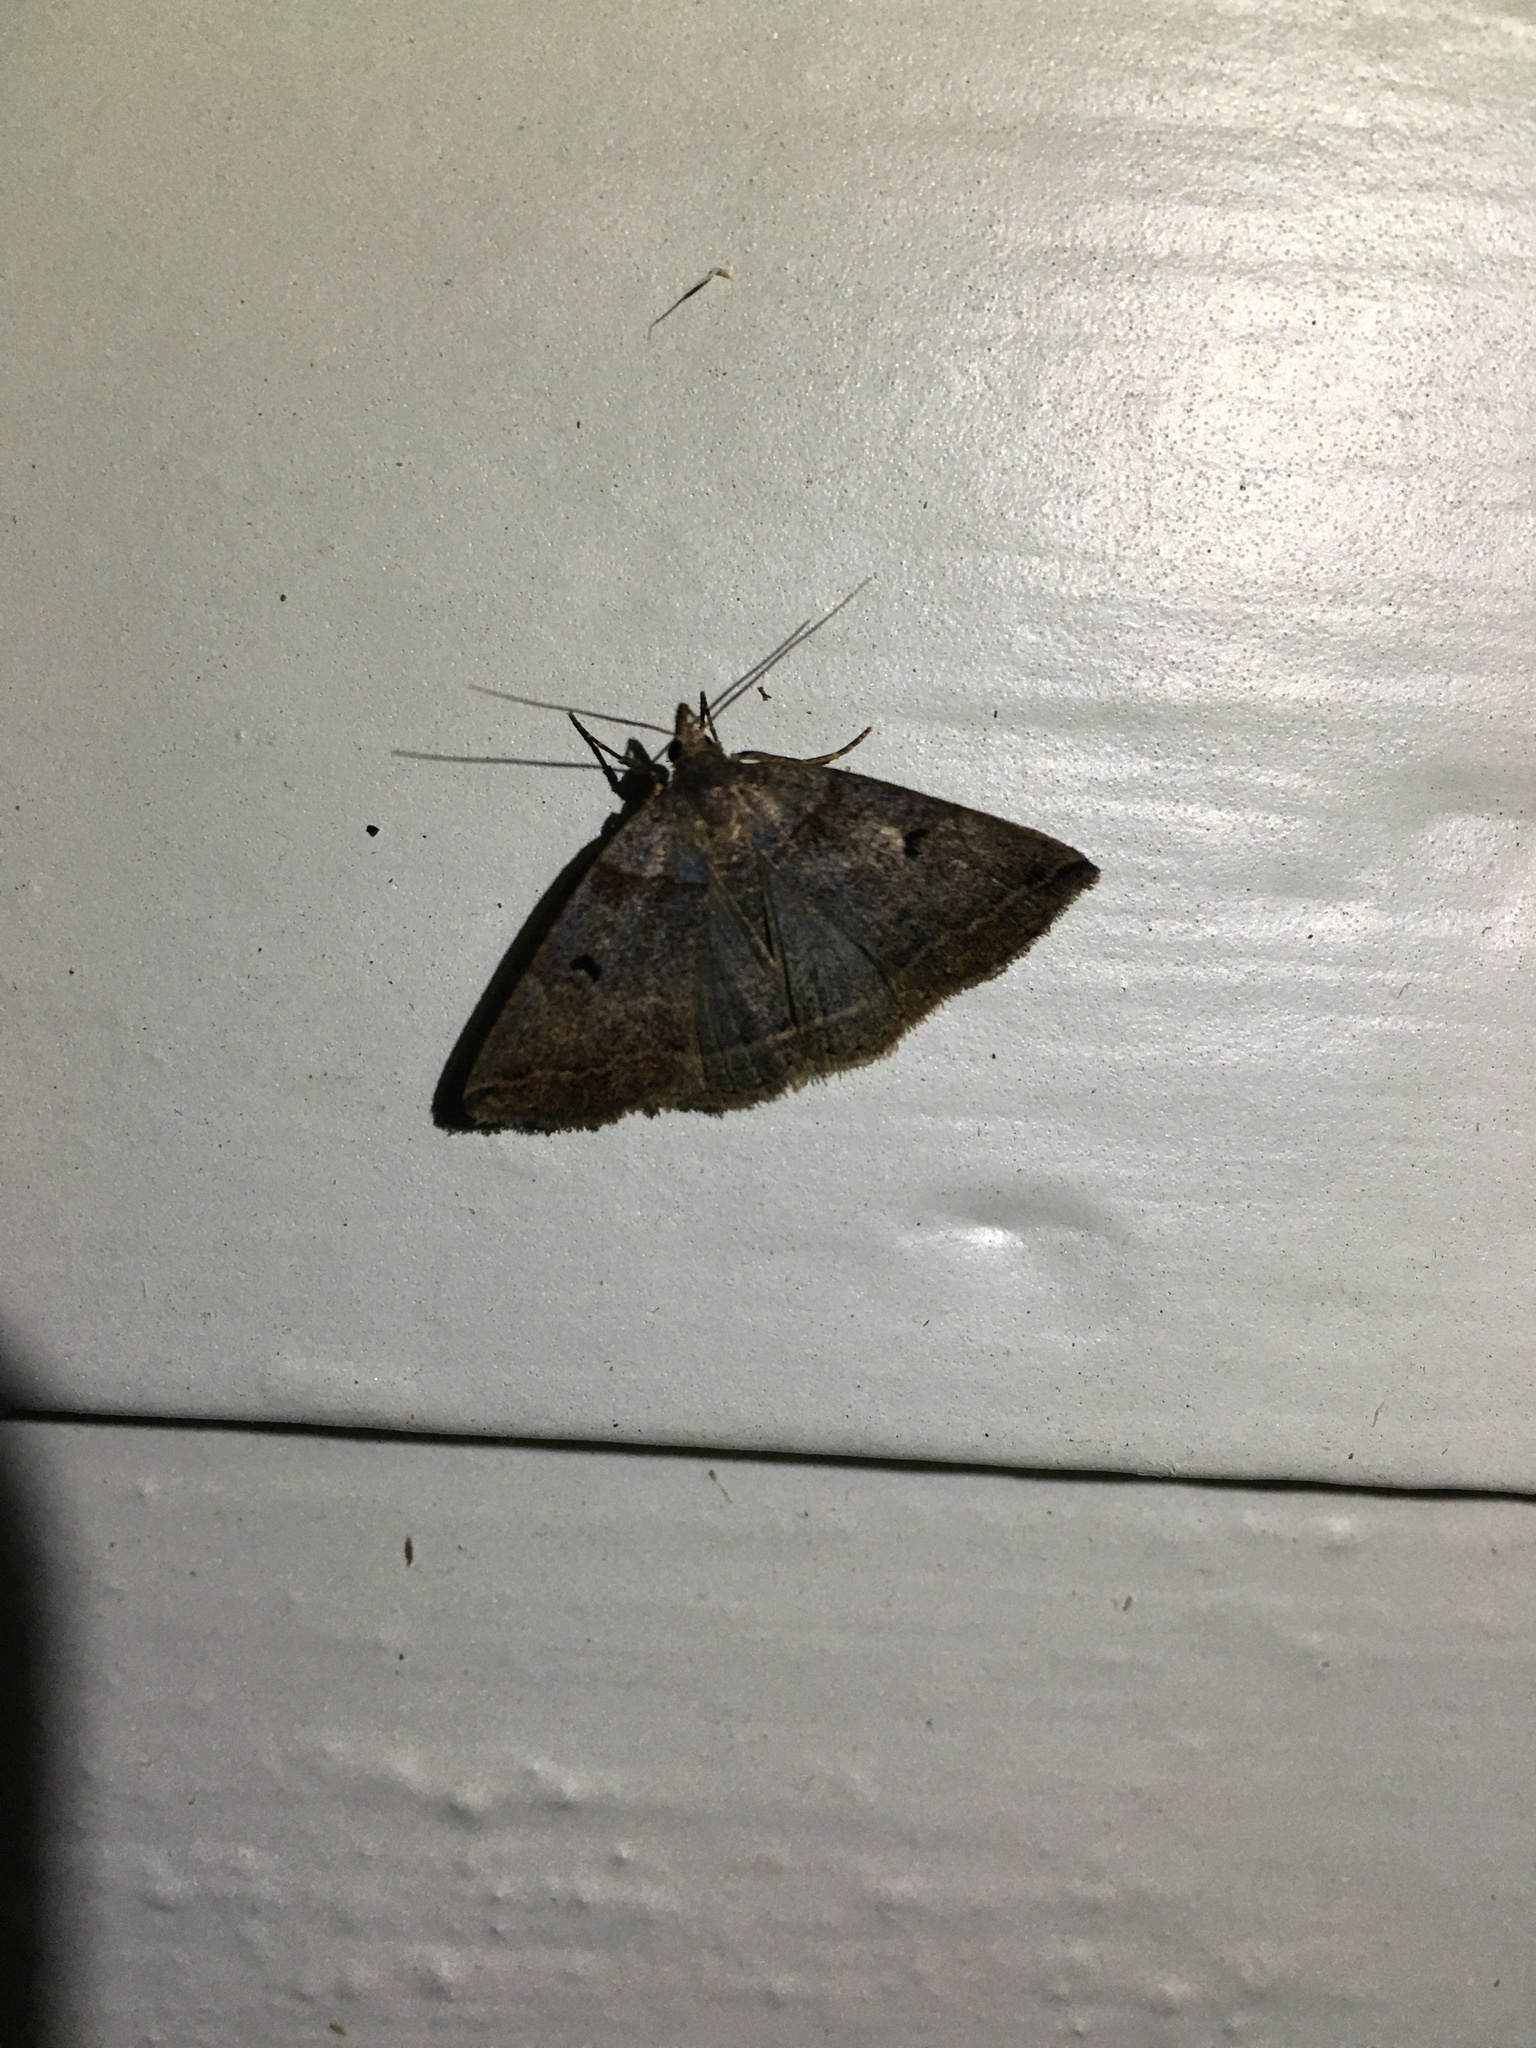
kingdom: Animalia
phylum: Arthropoda
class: Insecta
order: Lepidoptera
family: Erebidae
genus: Zanclognatha
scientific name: Zanclognatha laevigata
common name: Variable fan-foot
